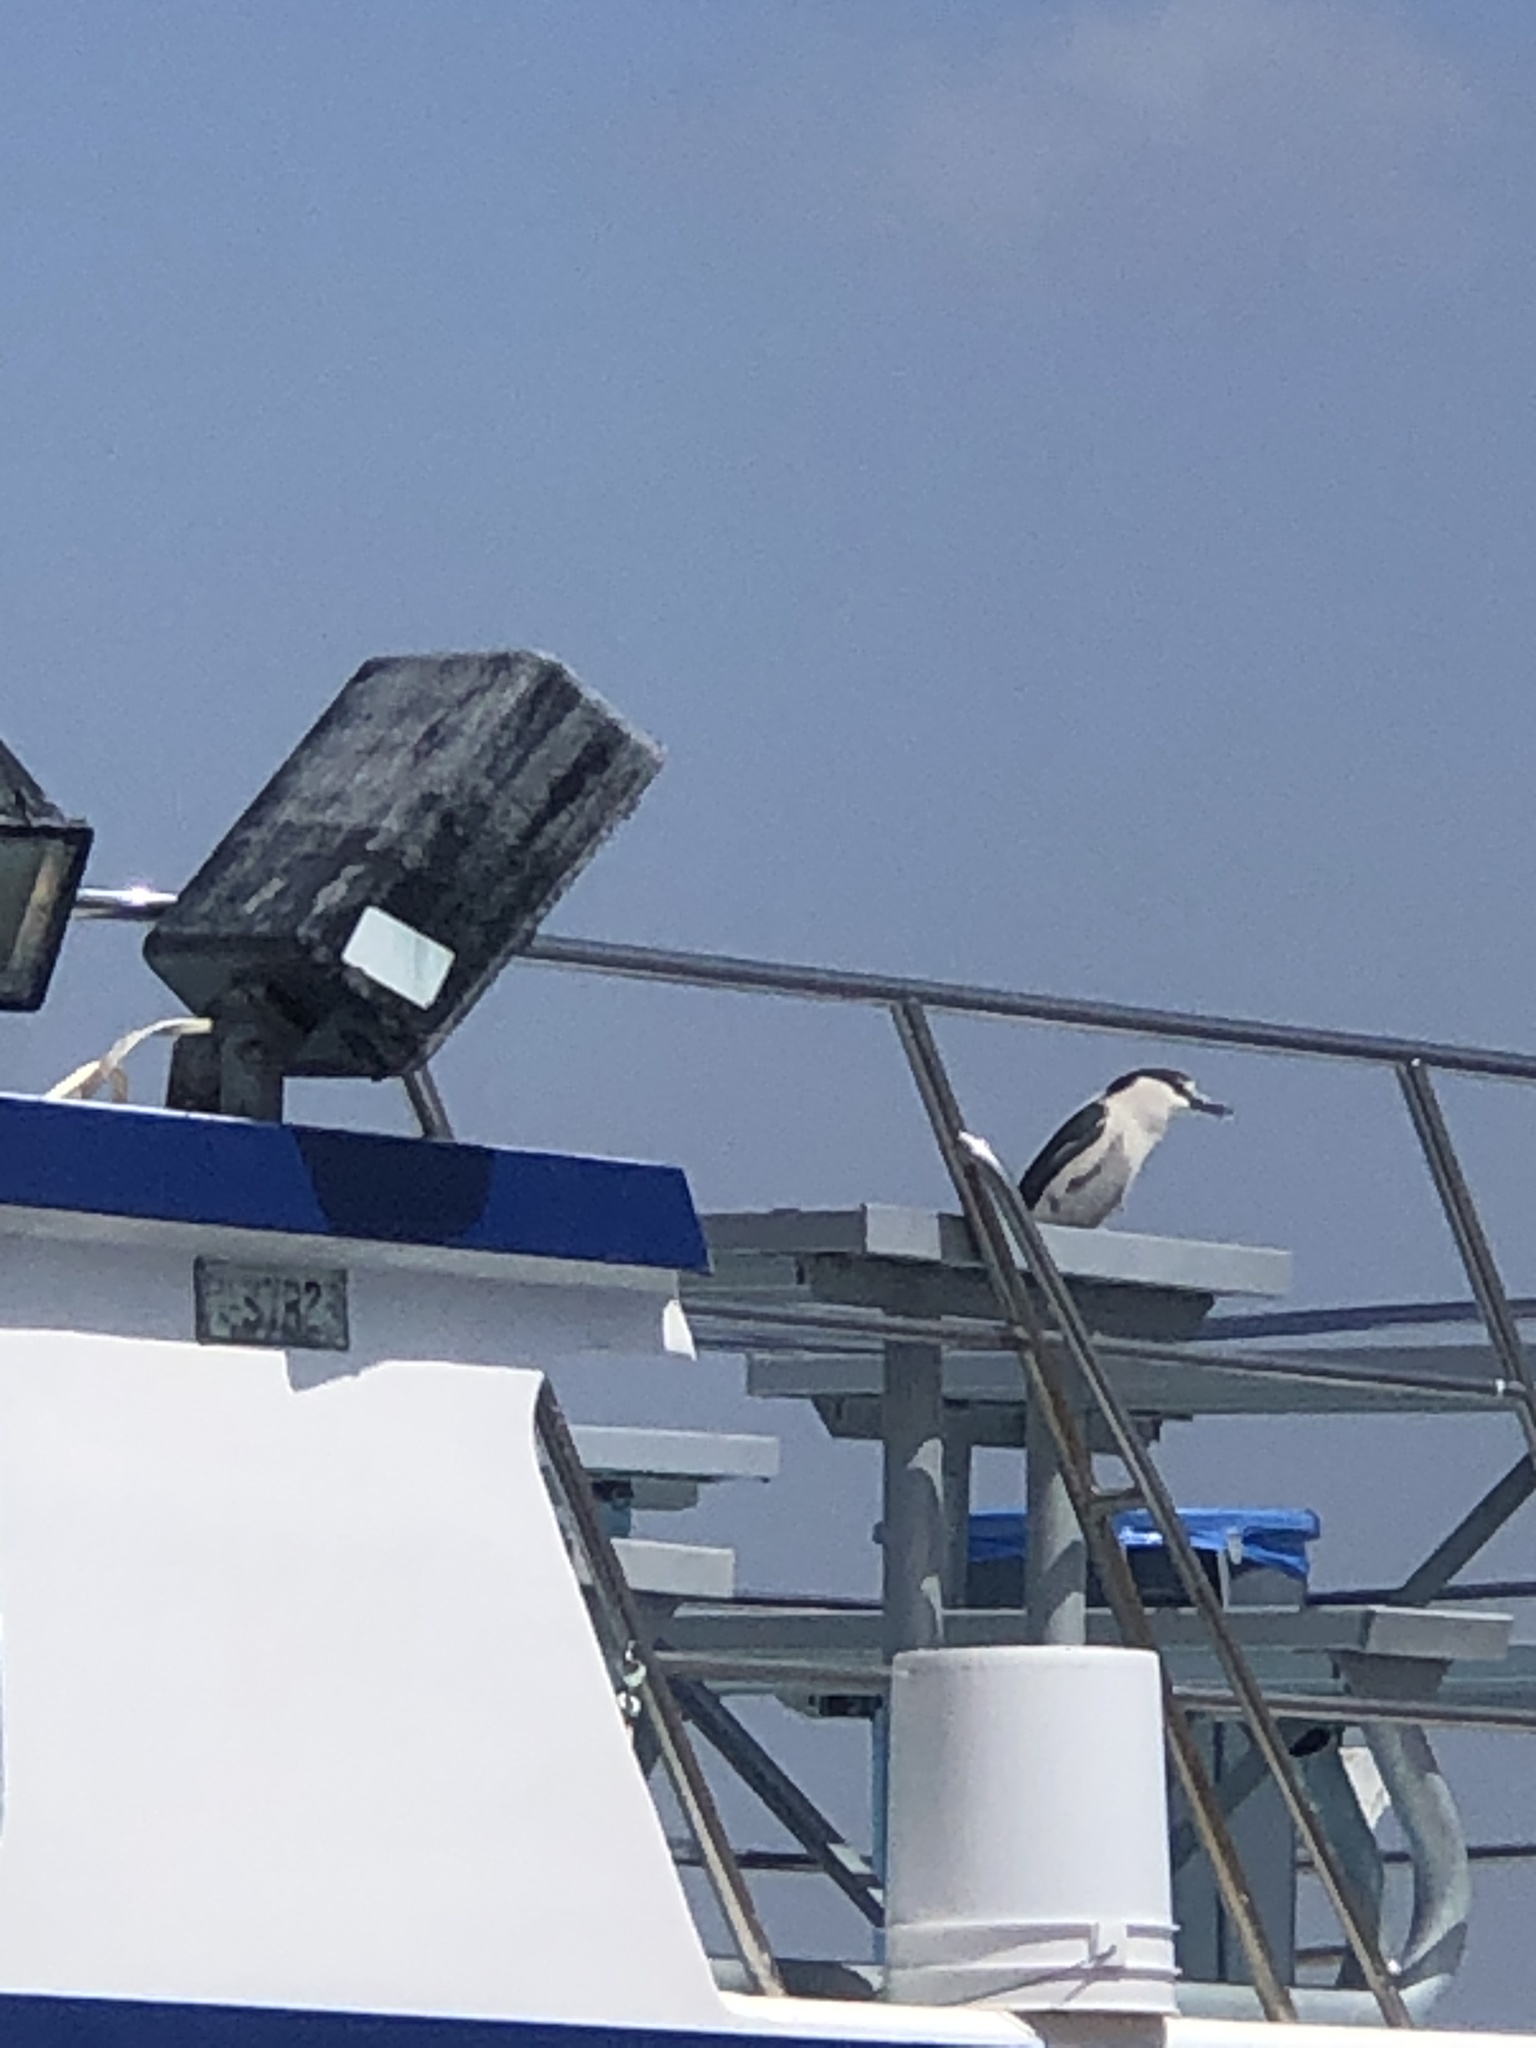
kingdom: Animalia
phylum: Chordata
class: Aves
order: Pelecaniformes
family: Ardeidae
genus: Nycticorax
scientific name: Nycticorax nycticorax
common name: Black-crowned night heron
